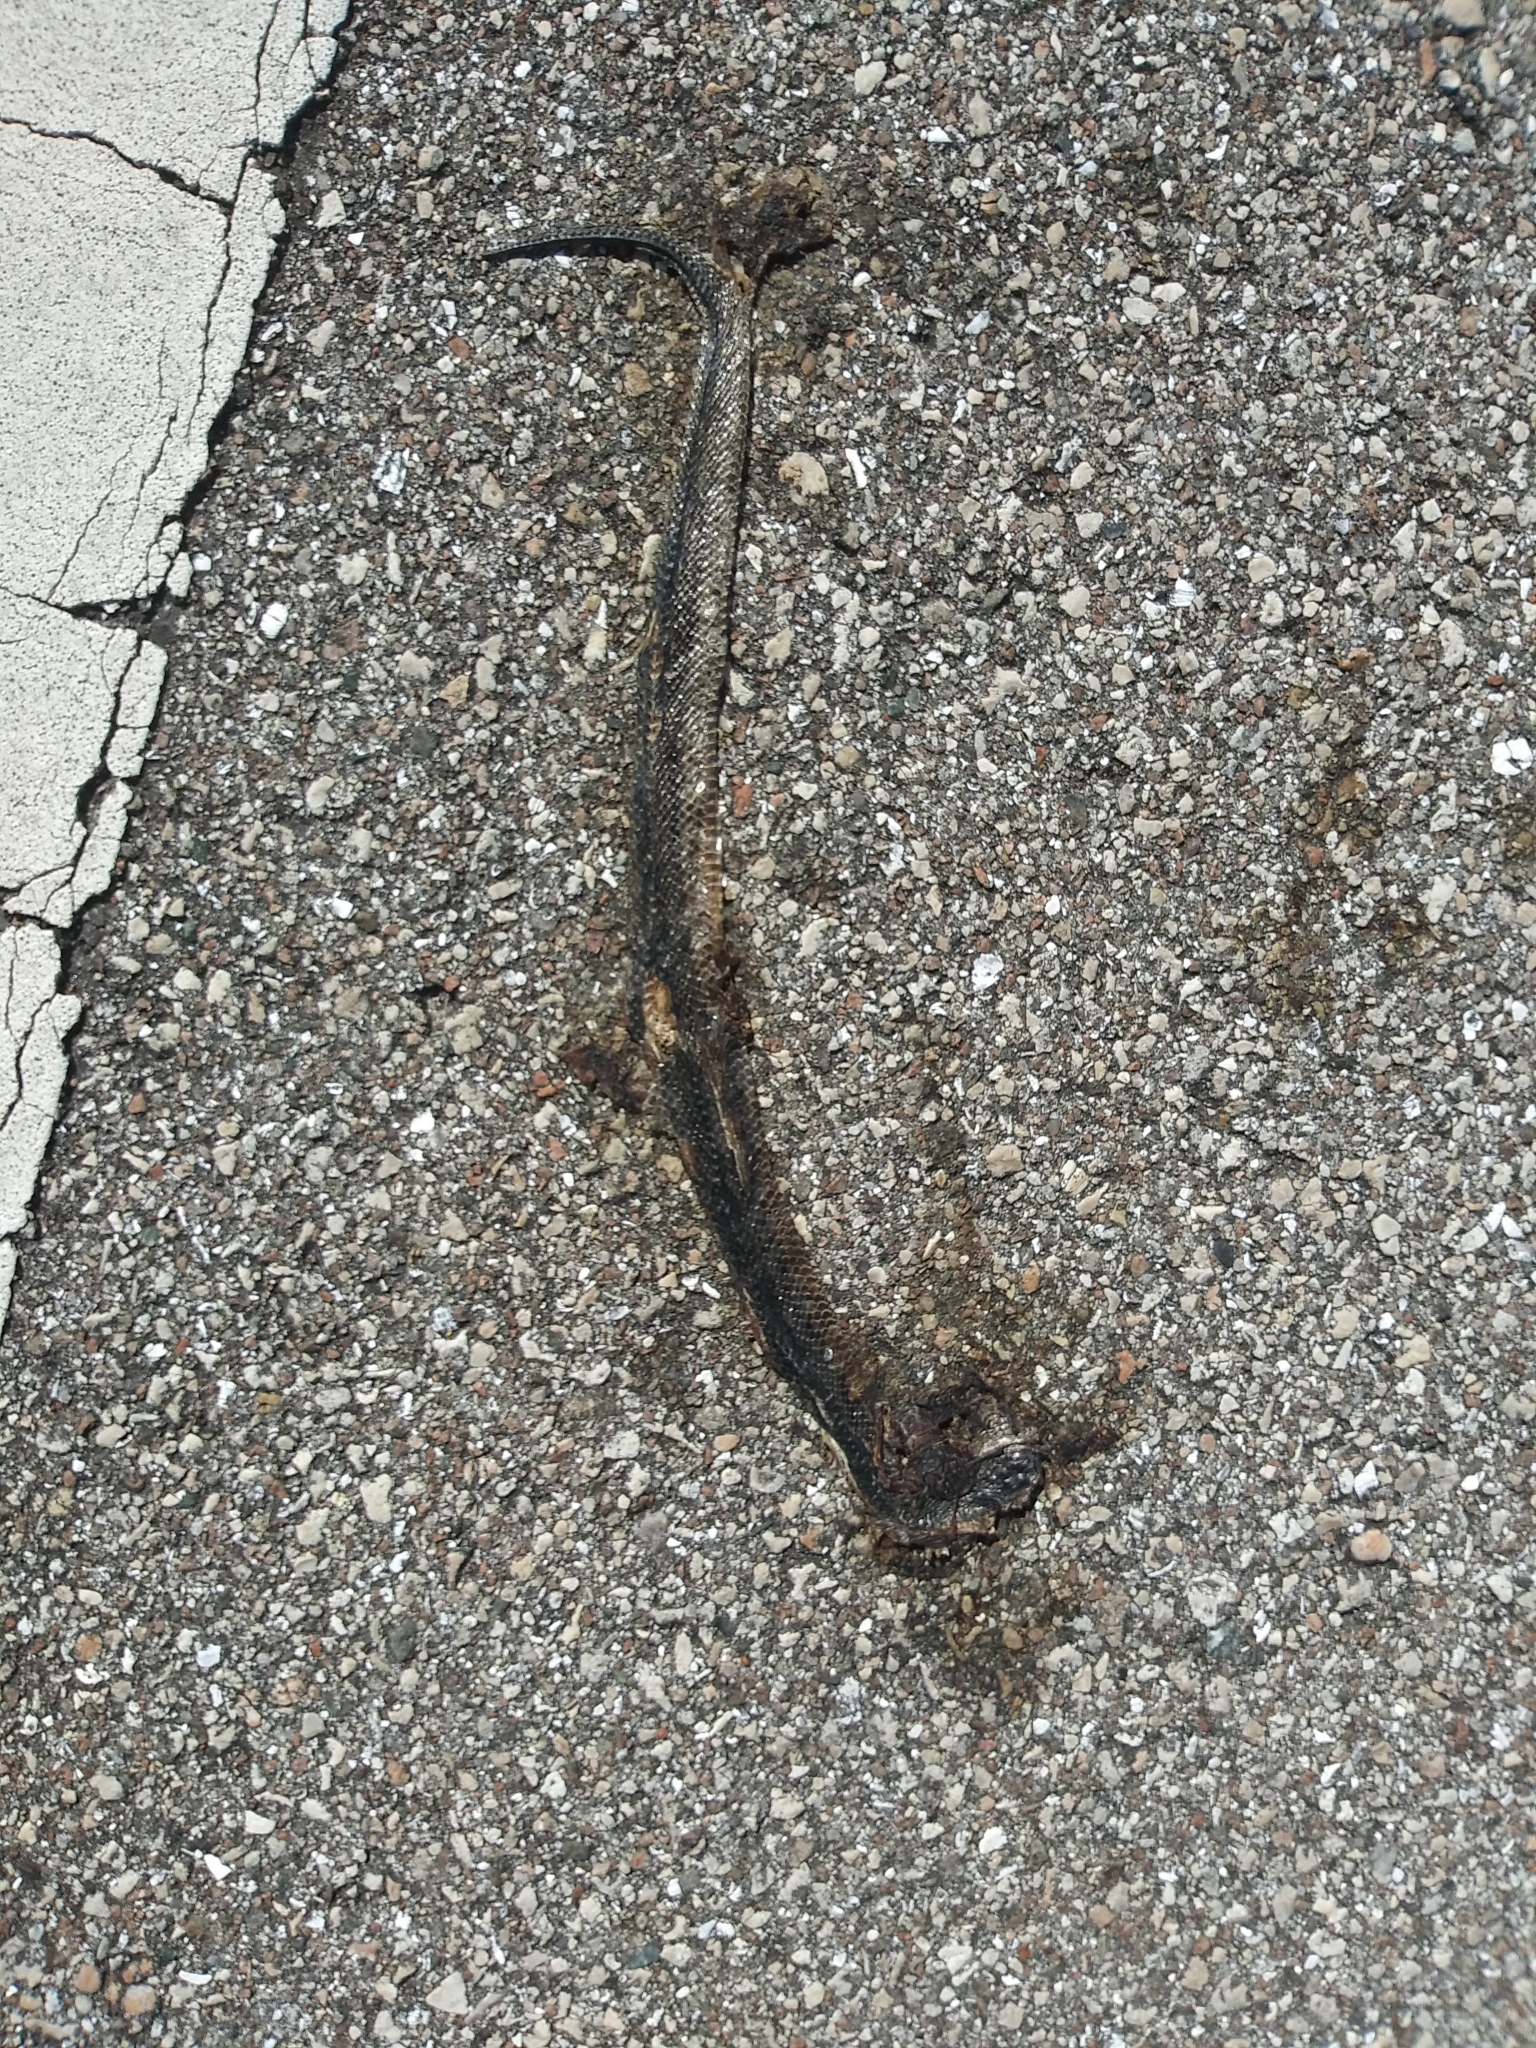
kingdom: Animalia
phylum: Chordata
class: Squamata
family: Colubridae
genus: Liodytes
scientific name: Liodytes alleni
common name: Striped crayfish snake
